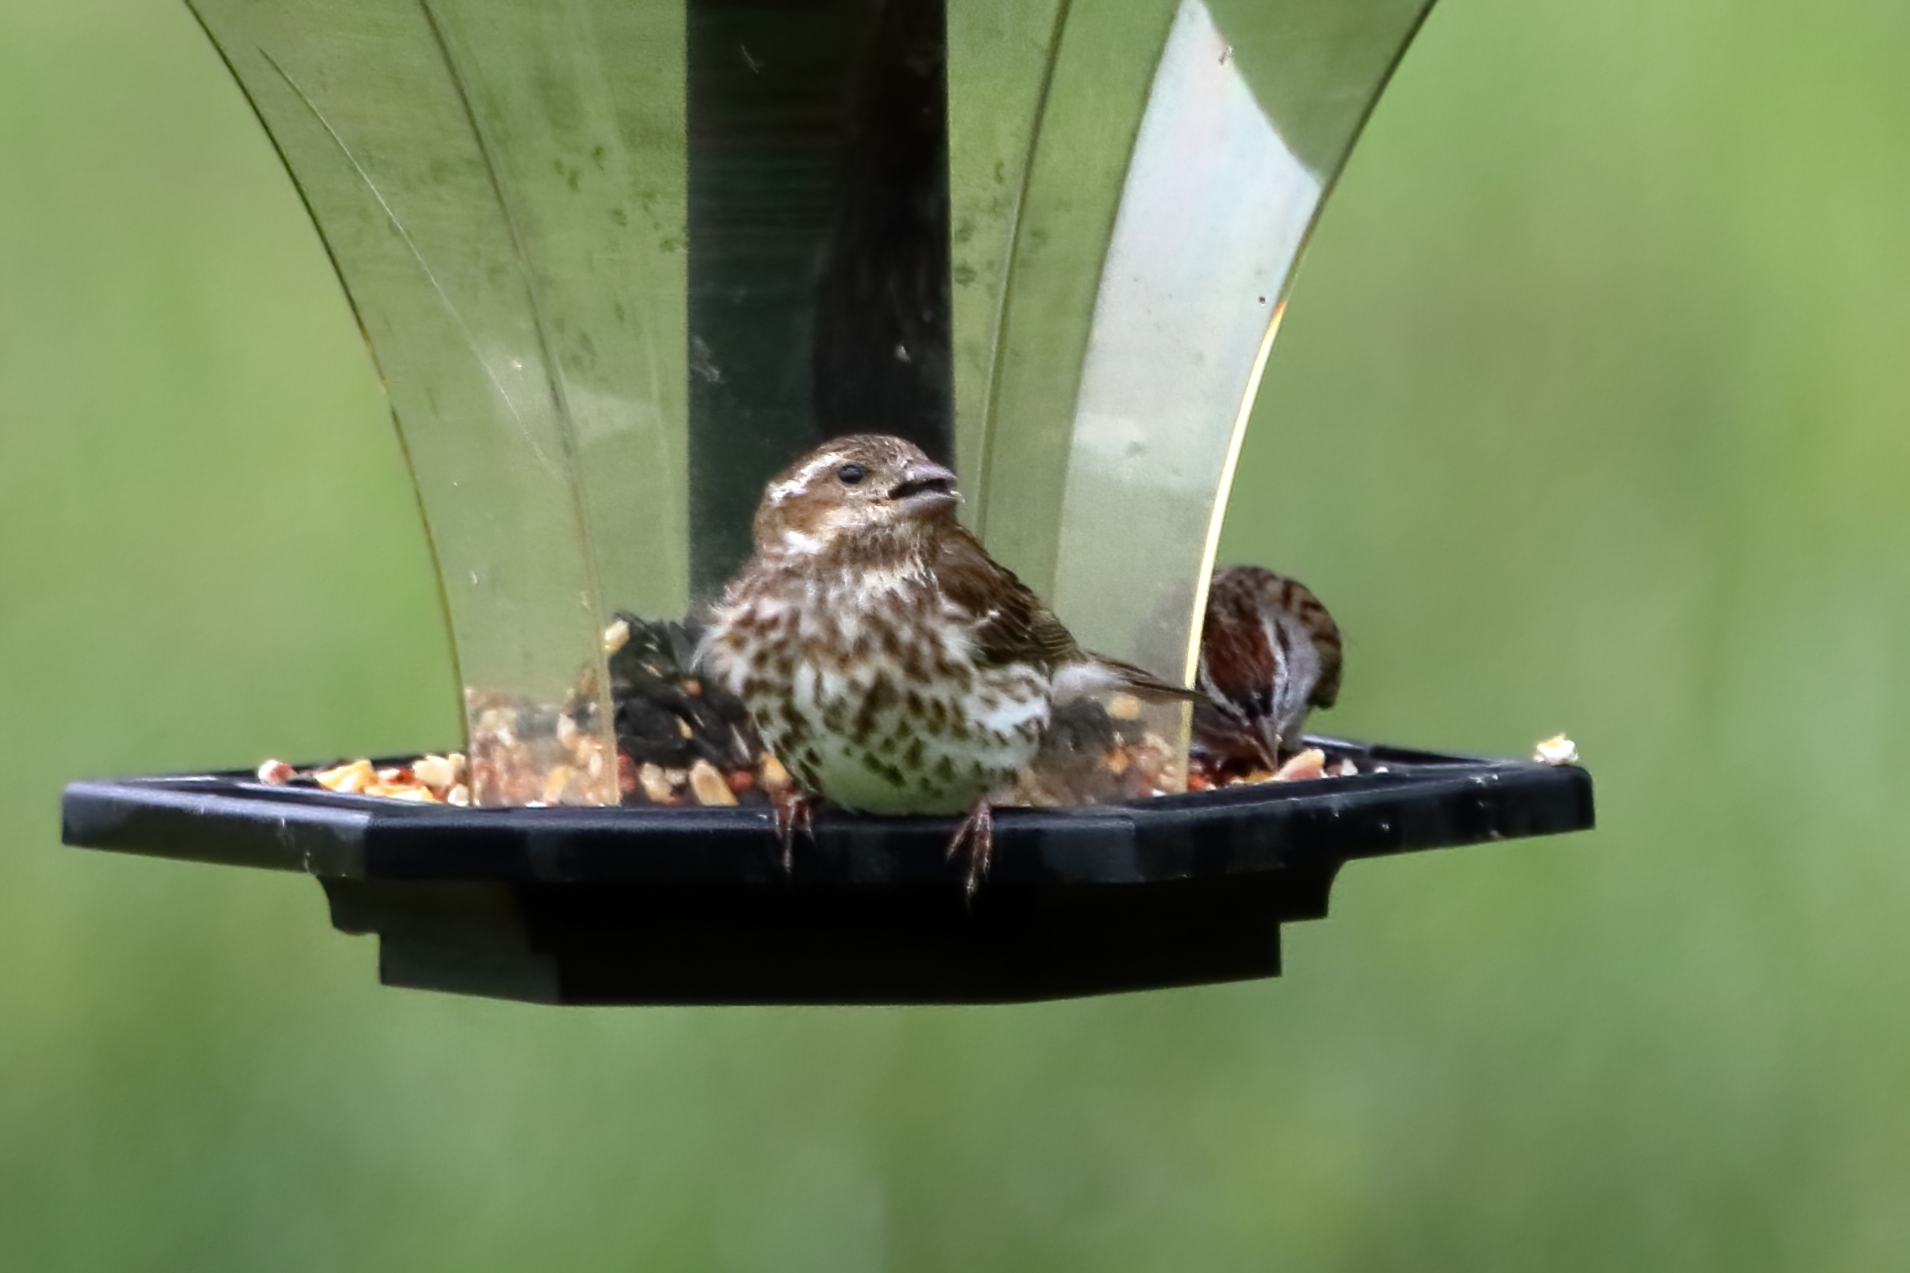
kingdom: Animalia
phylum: Chordata
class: Aves
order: Passeriformes
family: Fringillidae
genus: Haemorhous
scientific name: Haemorhous purpureus
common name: Purple finch
